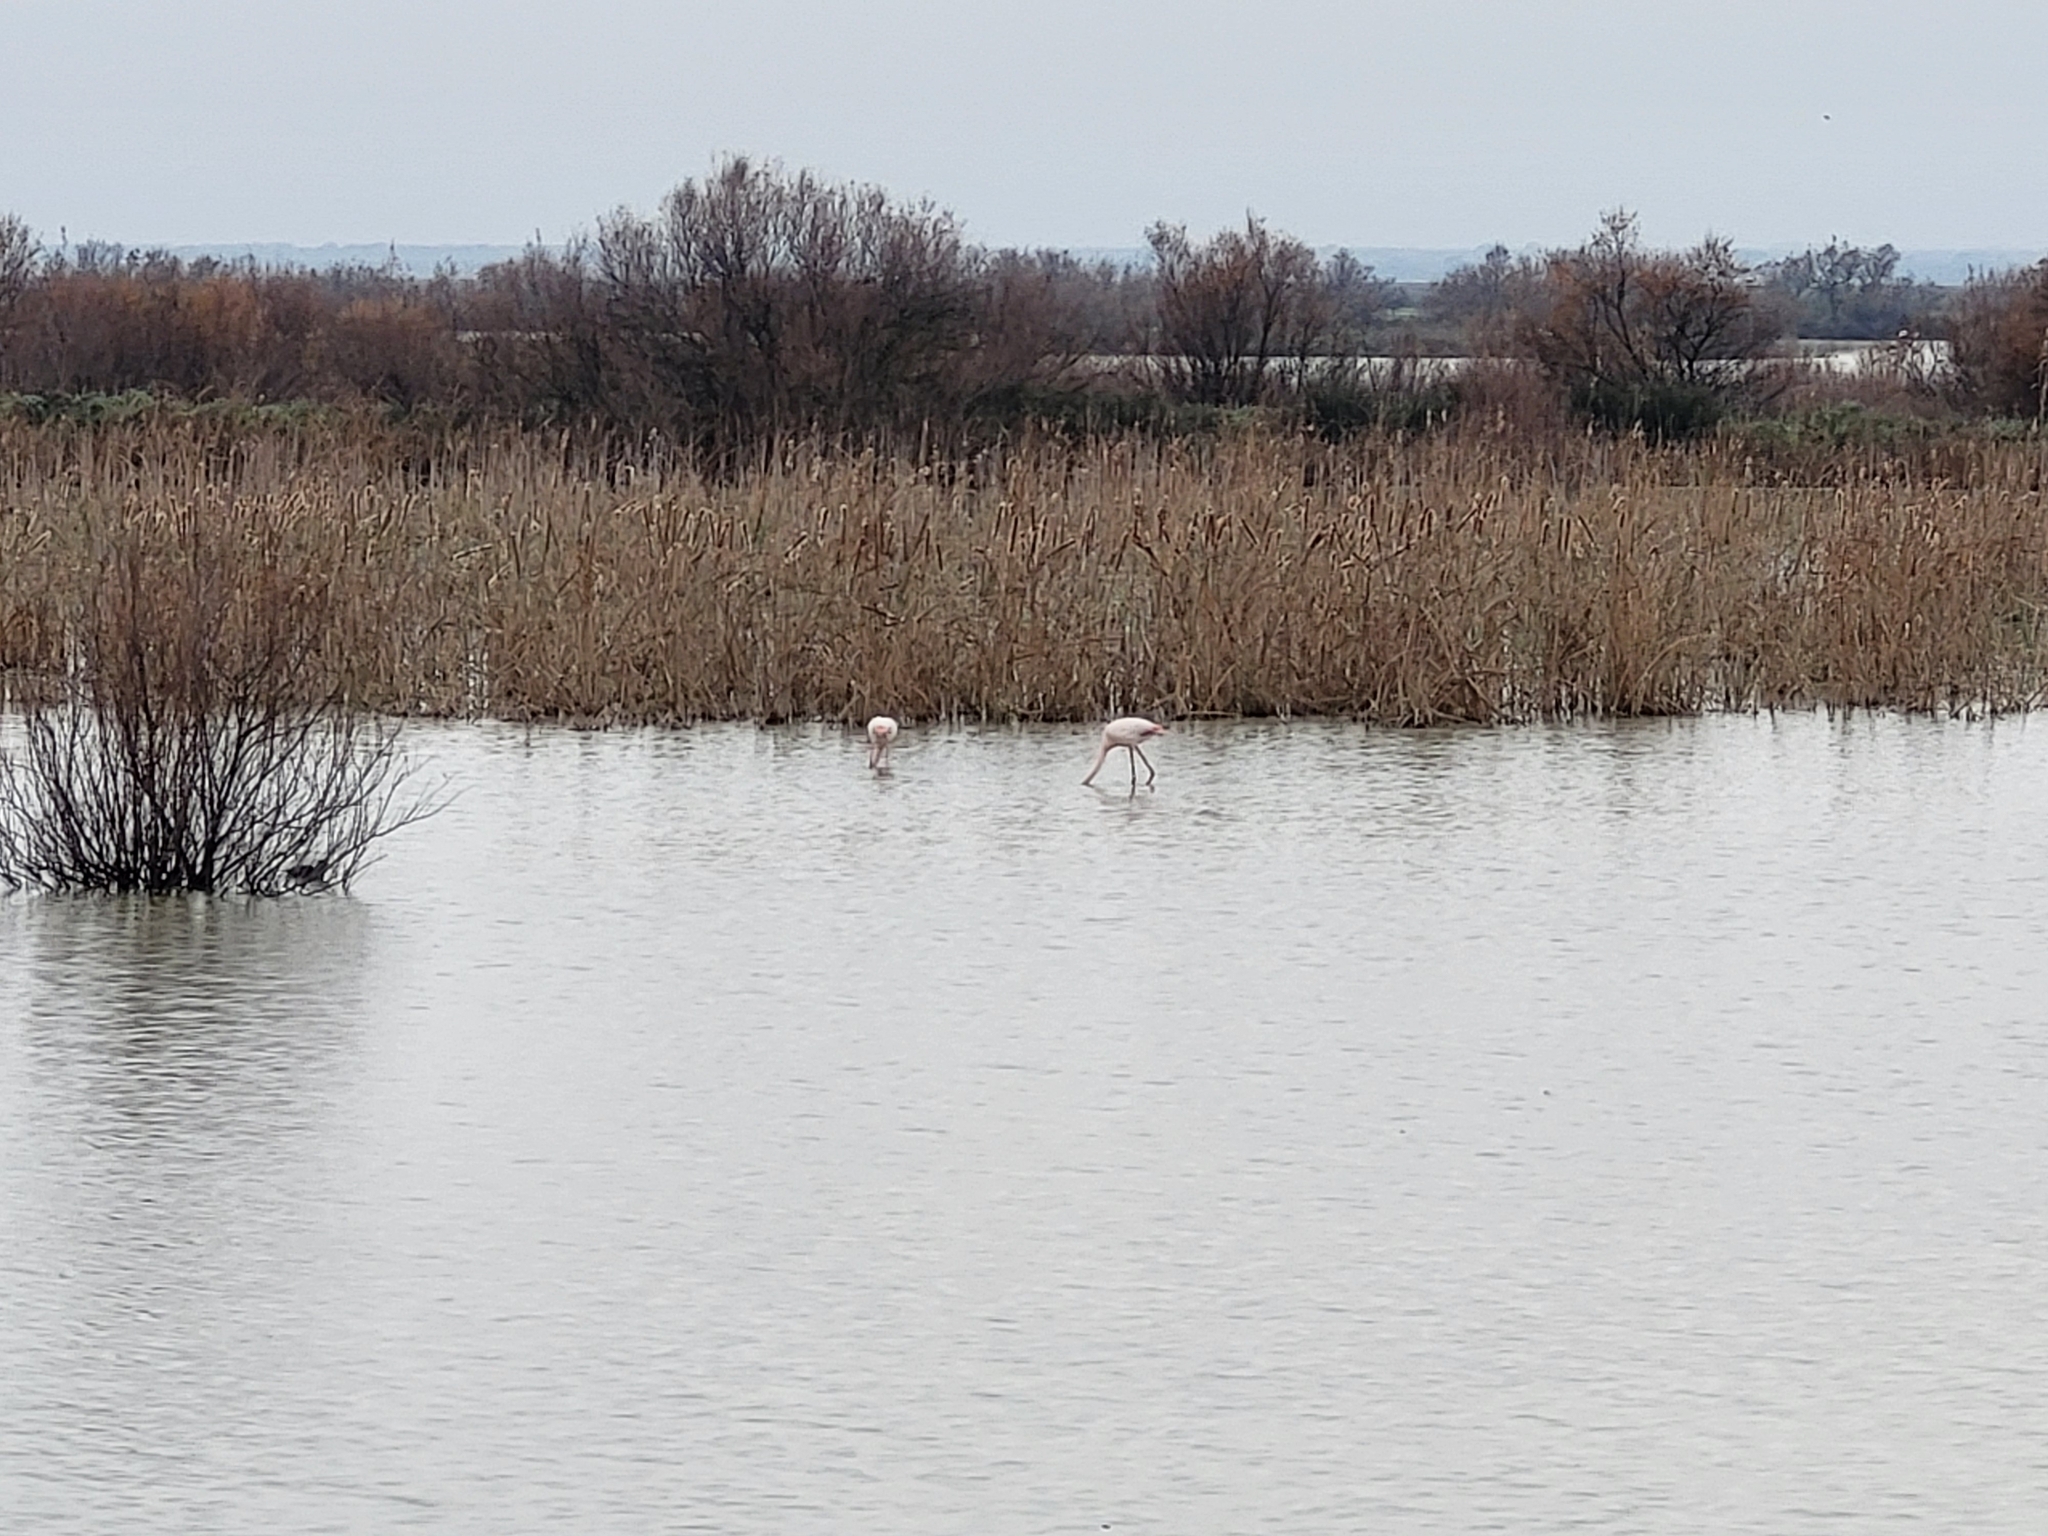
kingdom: Animalia
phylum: Chordata
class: Aves
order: Phoenicopteriformes
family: Phoenicopteridae
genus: Phoenicopterus
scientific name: Phoenicopterus roseus
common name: Greater flamingo
